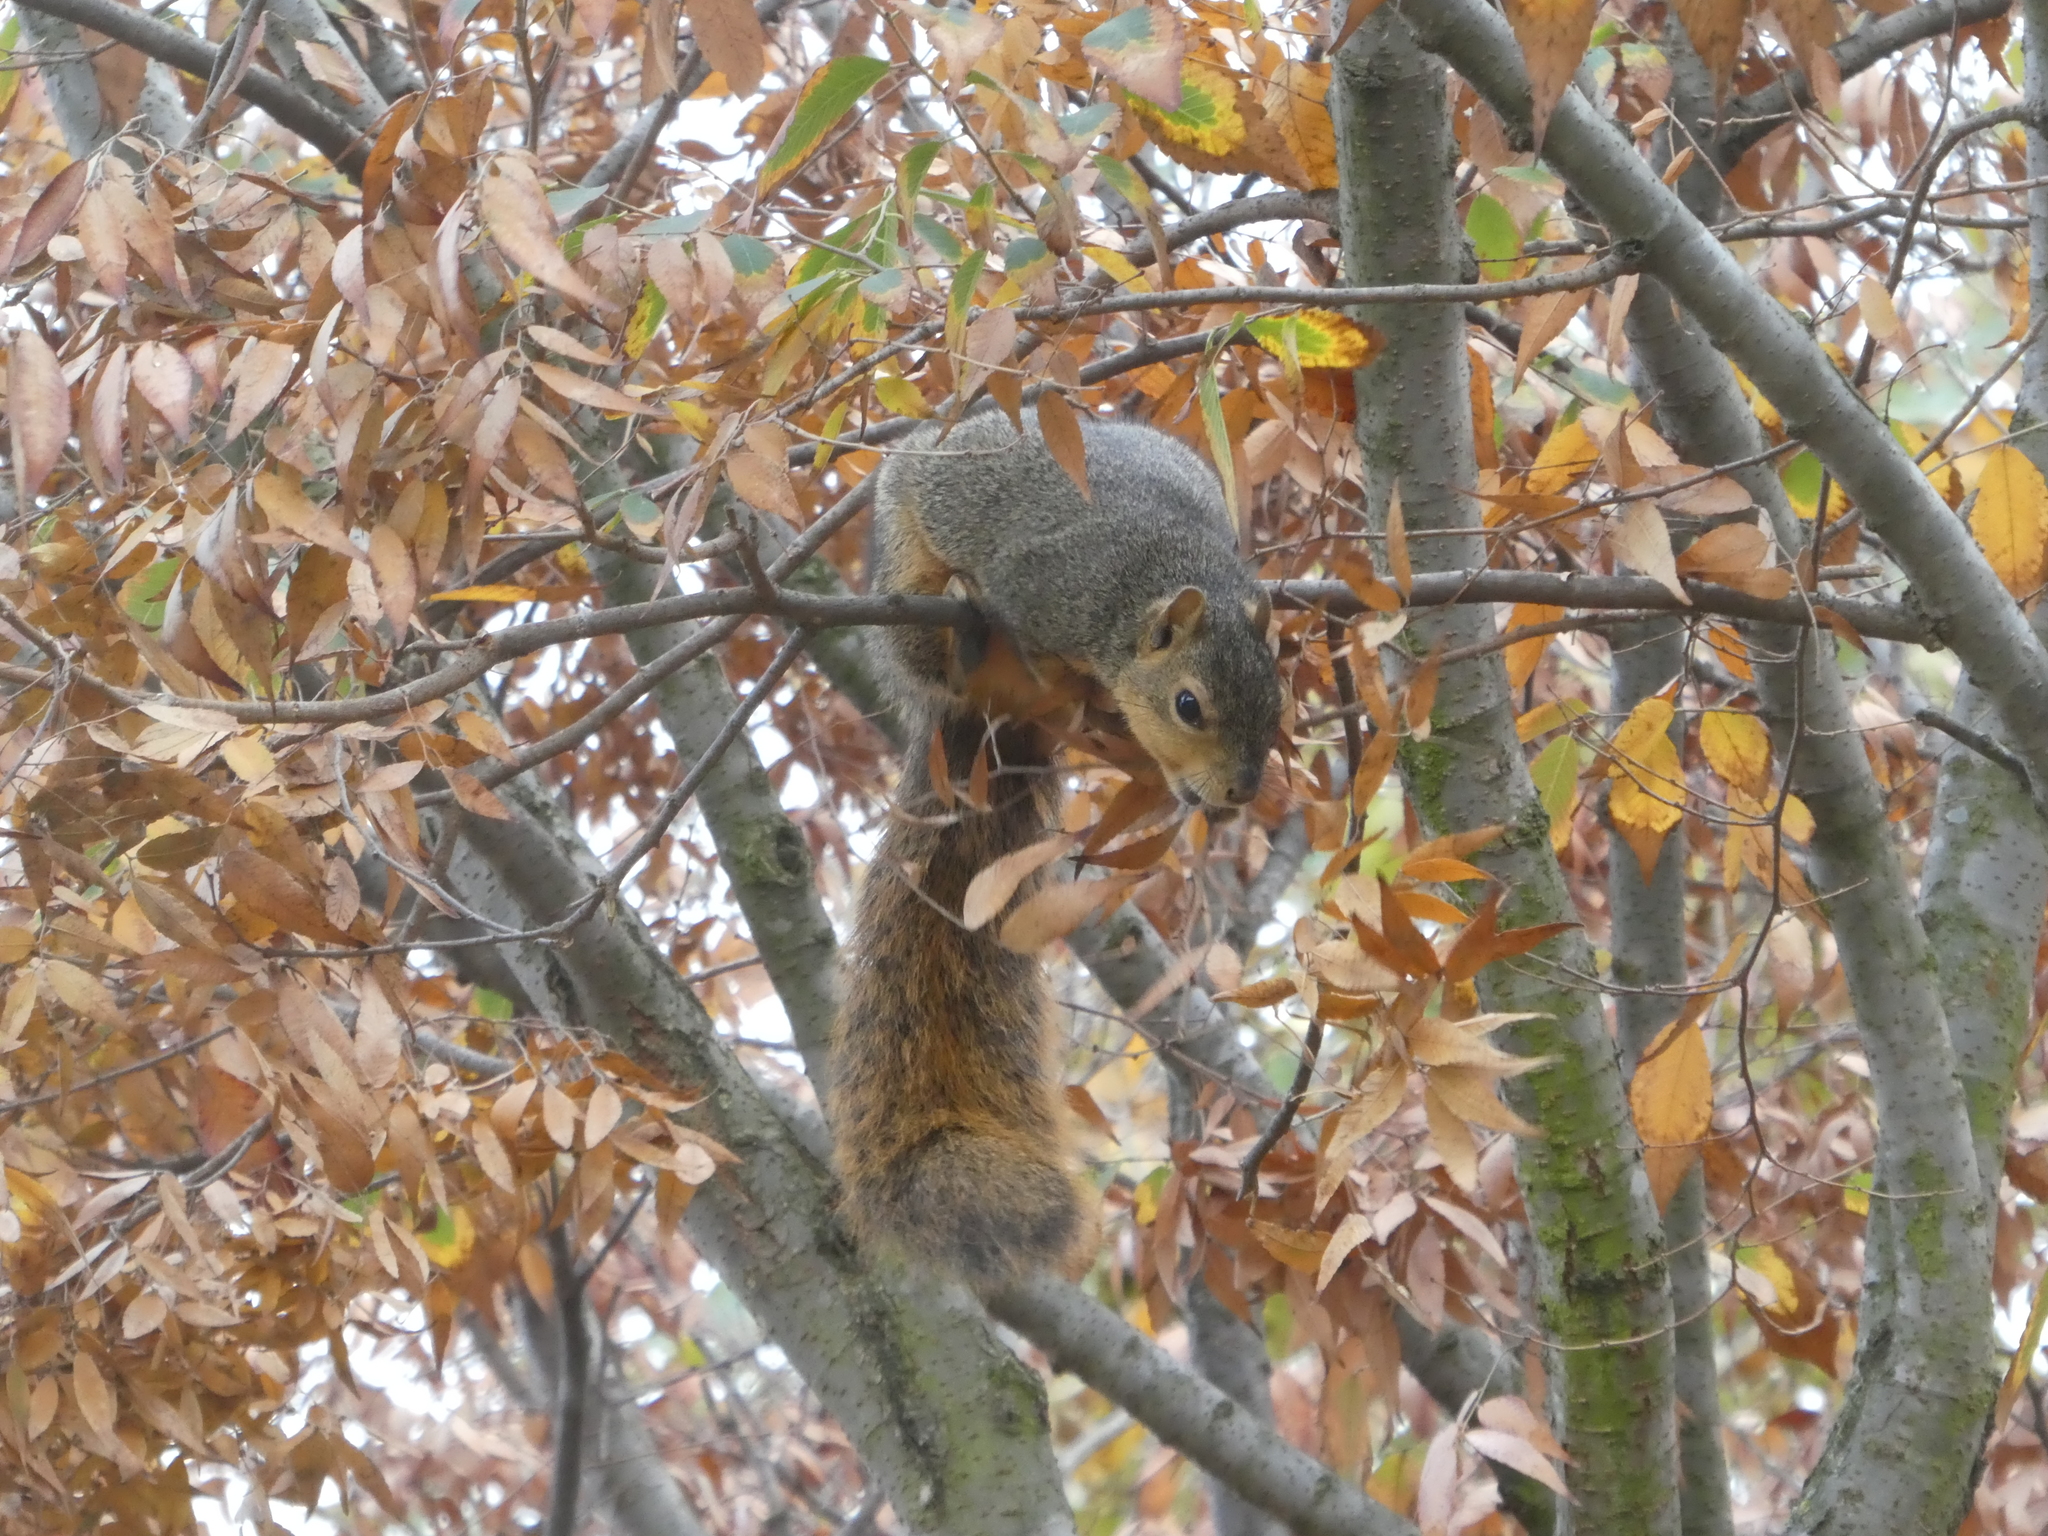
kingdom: Animalia
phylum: Chordata
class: Mammalia
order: Rodentia
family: Sciuridae
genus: Sciurus
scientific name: Sciurus niger
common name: Fox squirrel
